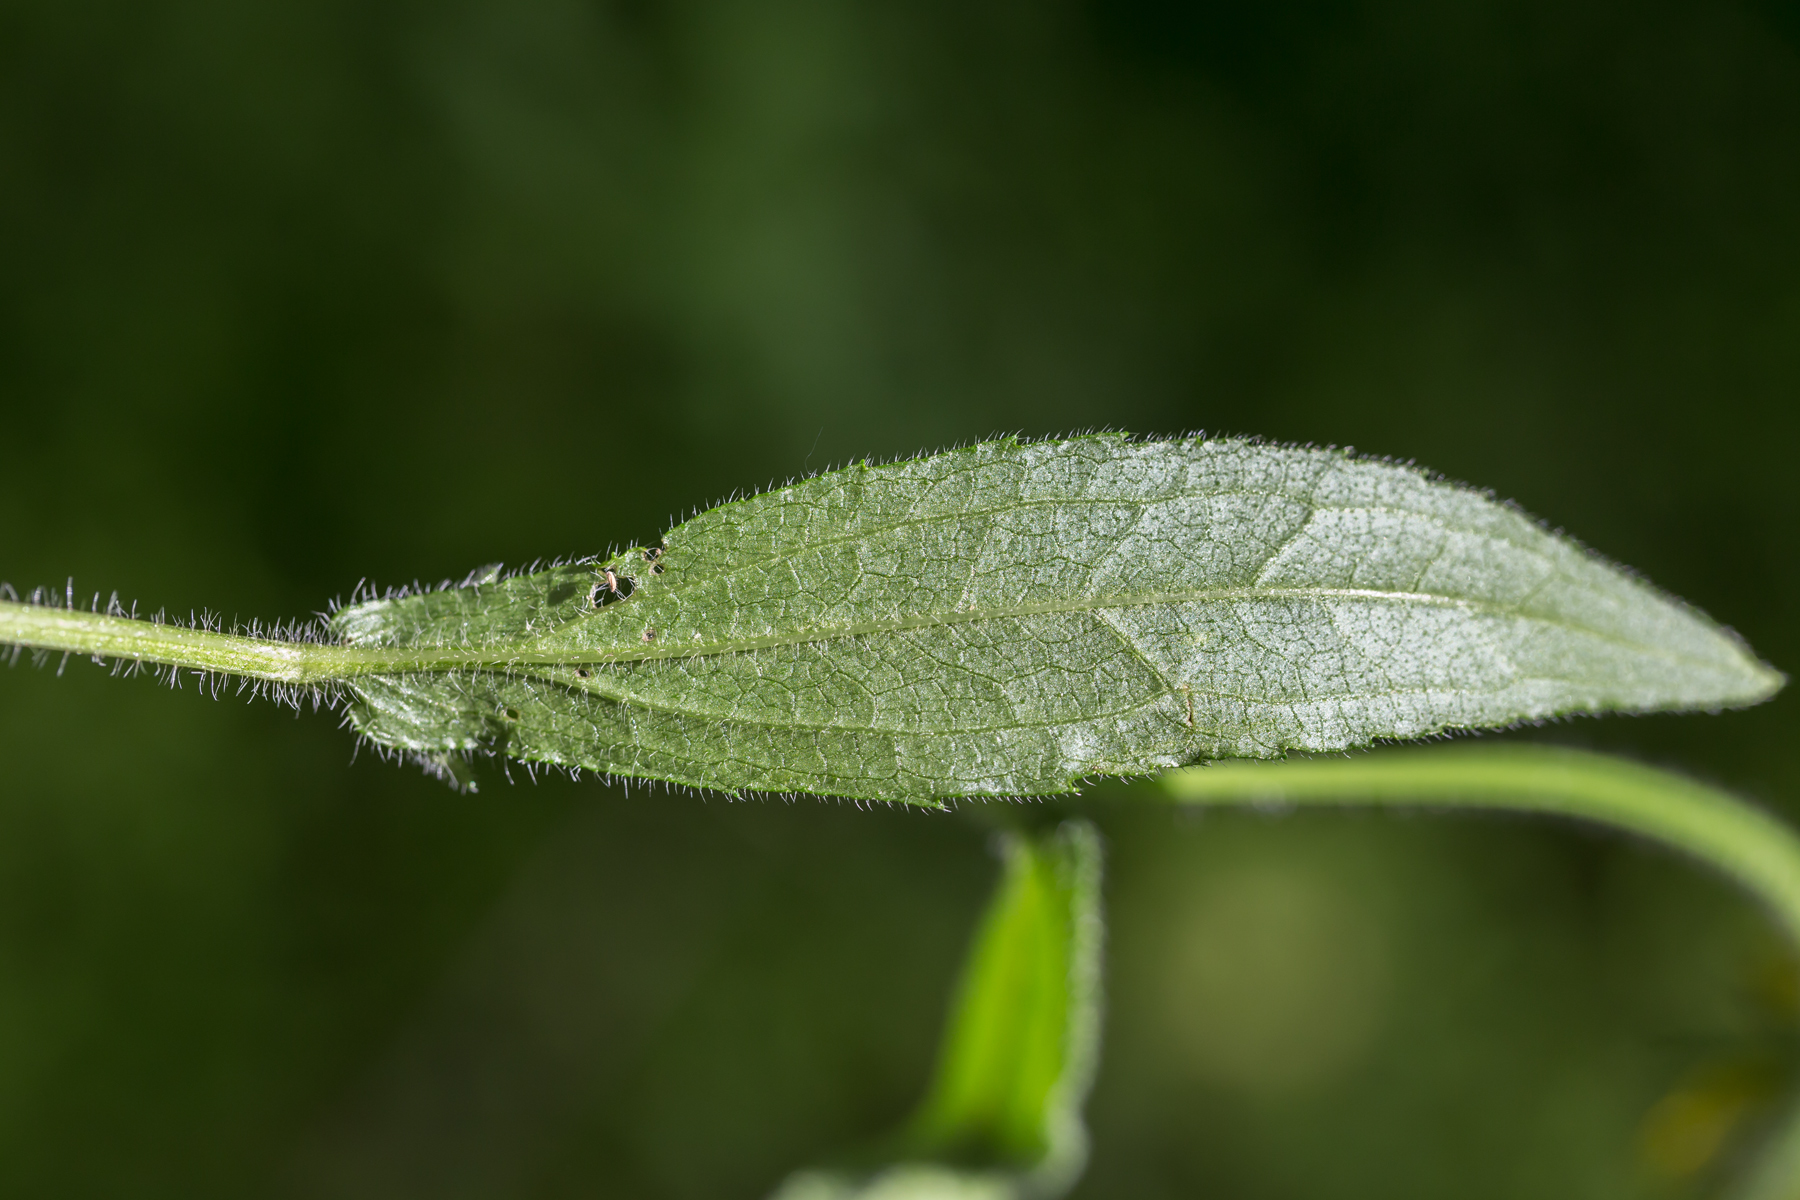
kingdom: Plantae
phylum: Tracheophyta
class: Magnoliopsida
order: Asterales
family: Asteraceae
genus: Rudbeckia
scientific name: Rudbeckia hirta
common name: Black-eyed-susan
